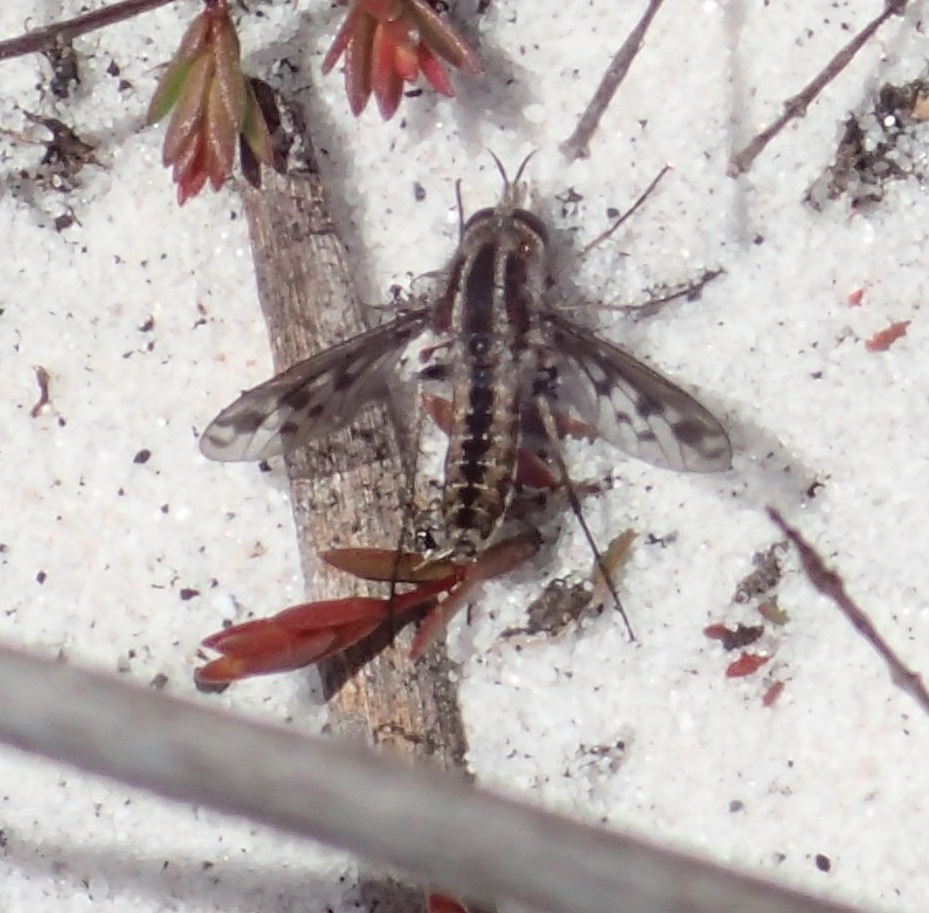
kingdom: Animalia
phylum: Arthropoda
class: Insecta
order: Diptera
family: Bombyliidae
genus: Lepidophora
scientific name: Lepidophora sumptuosum
